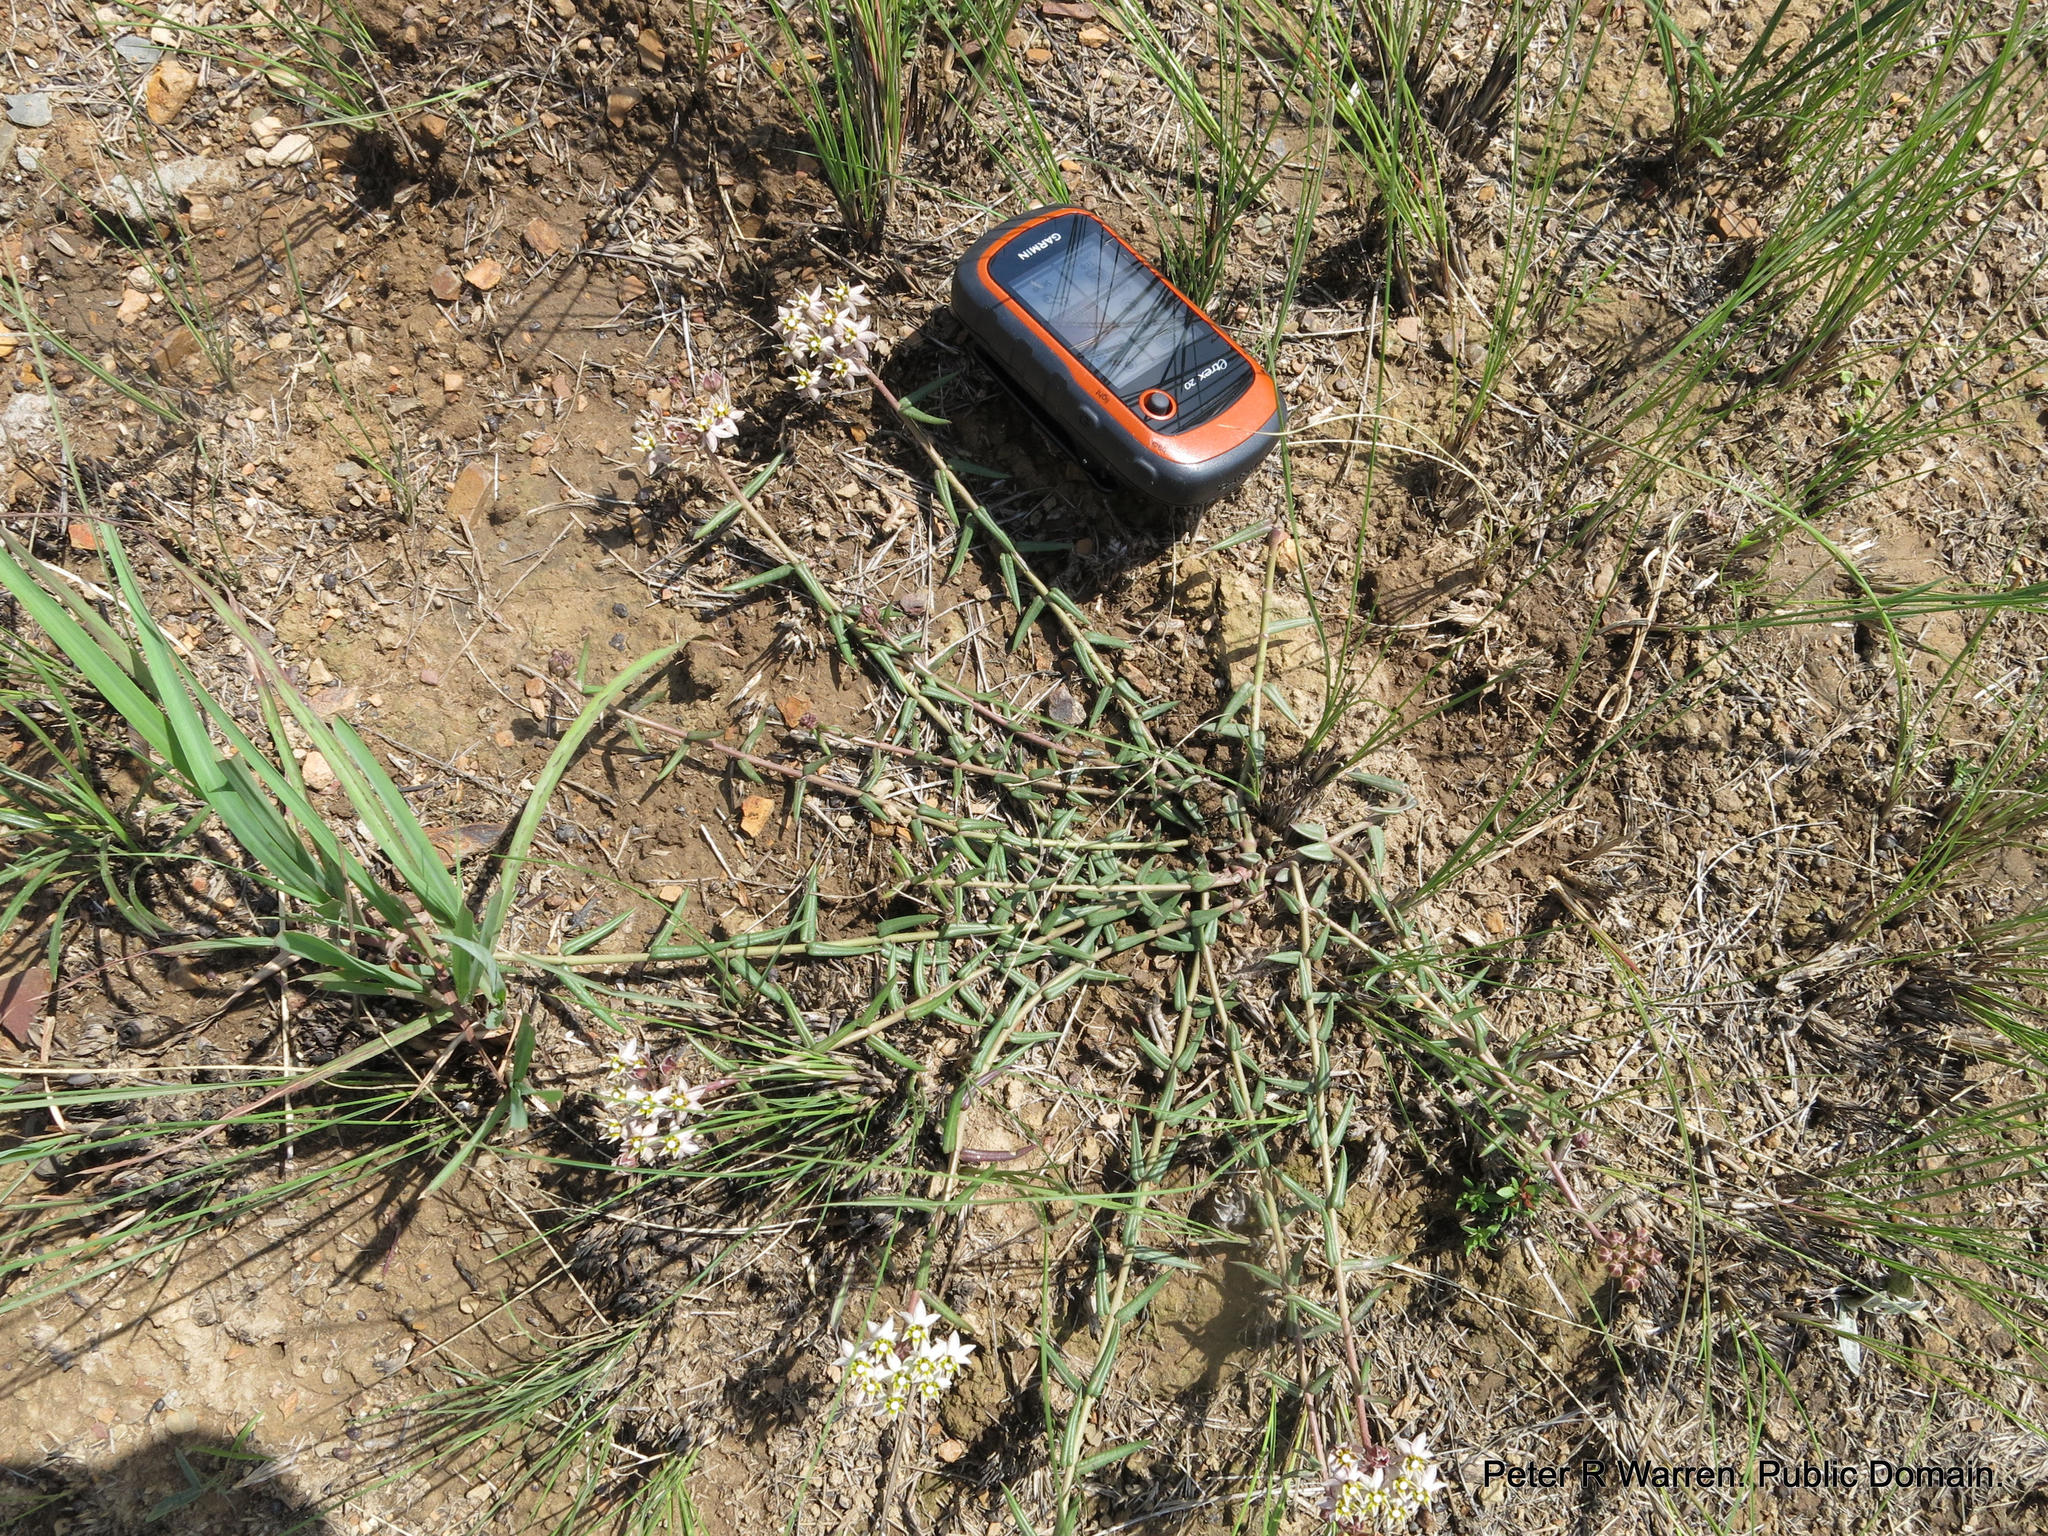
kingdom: Plantae
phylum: Tracheophyta
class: Magnoliopsida
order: Gentianales
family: Apocynaceae
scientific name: Apocynaceae
